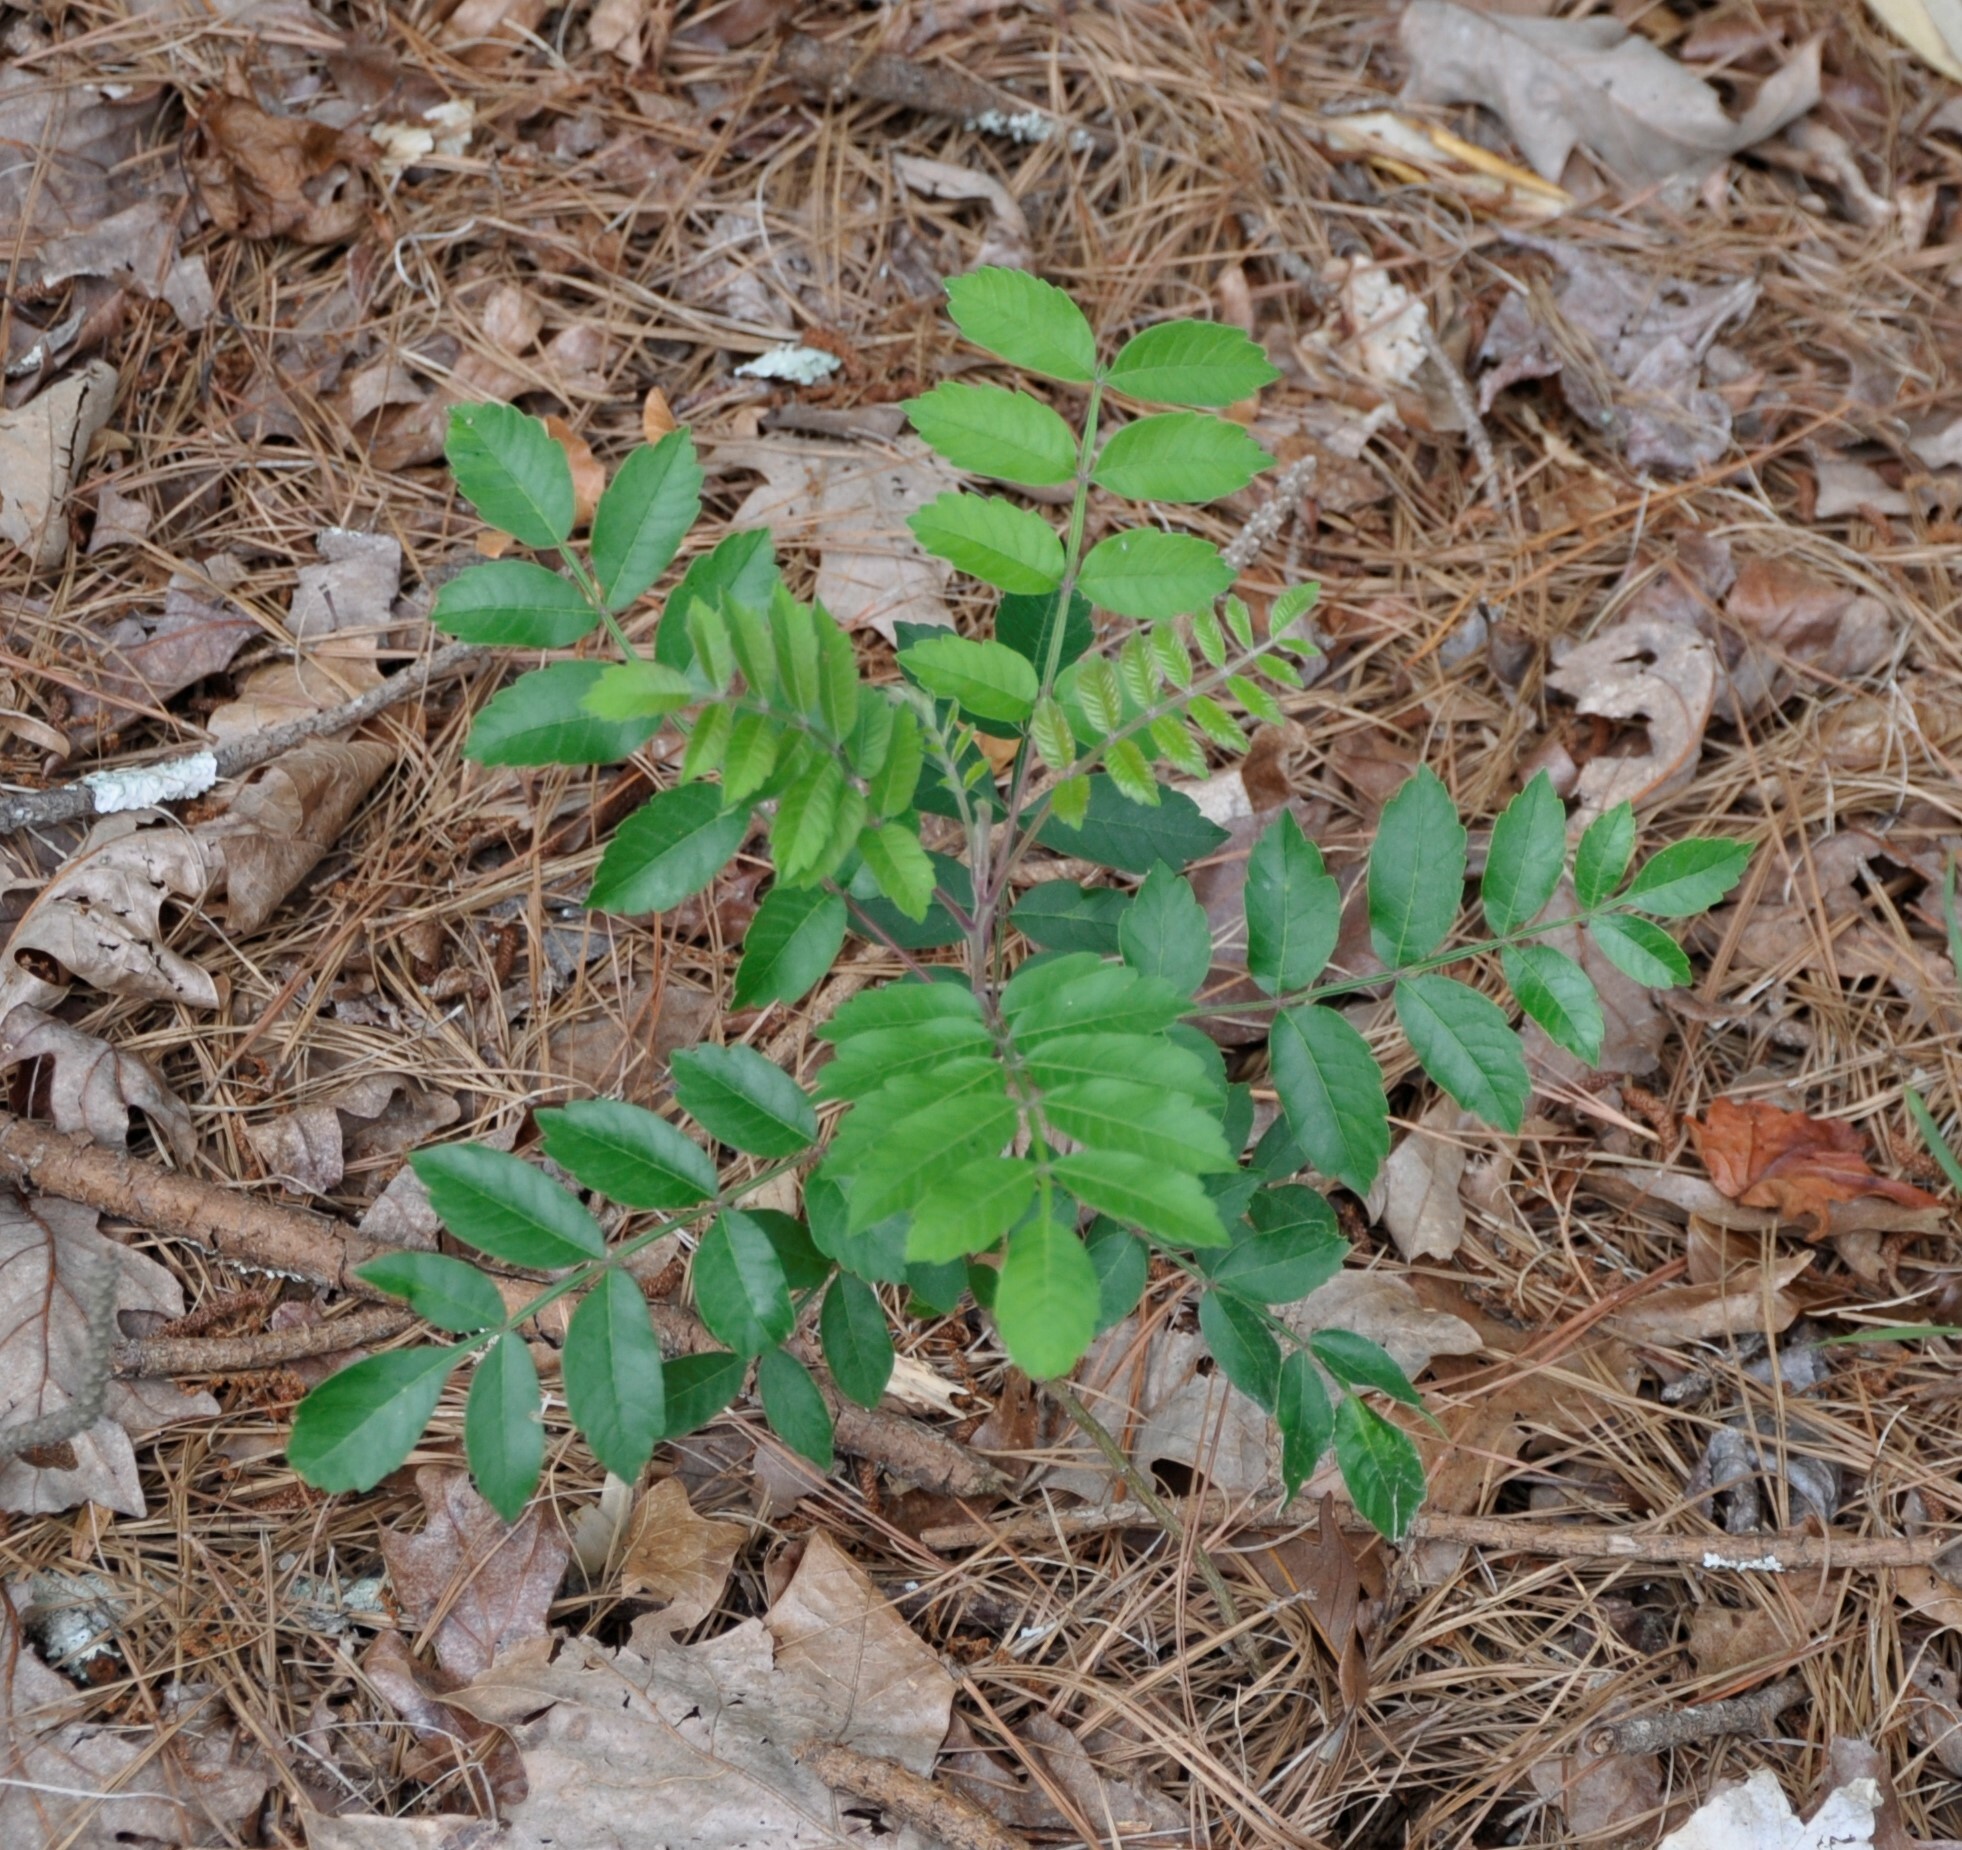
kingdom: Plantae
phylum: Tracheophyta
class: Magnoliopsida
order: Sapindales
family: Anacardiaceae
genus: Rhus
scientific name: Rhus copallina
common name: Shining sumac
